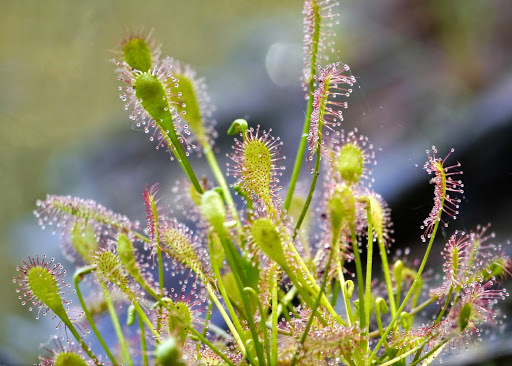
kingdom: Plantae
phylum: Tracheophyta
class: Magnoliopsida
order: Caryophyllales
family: Droseraceae
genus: Drosera
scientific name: Drosera intermedia
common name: Oblong-leaved sundew
